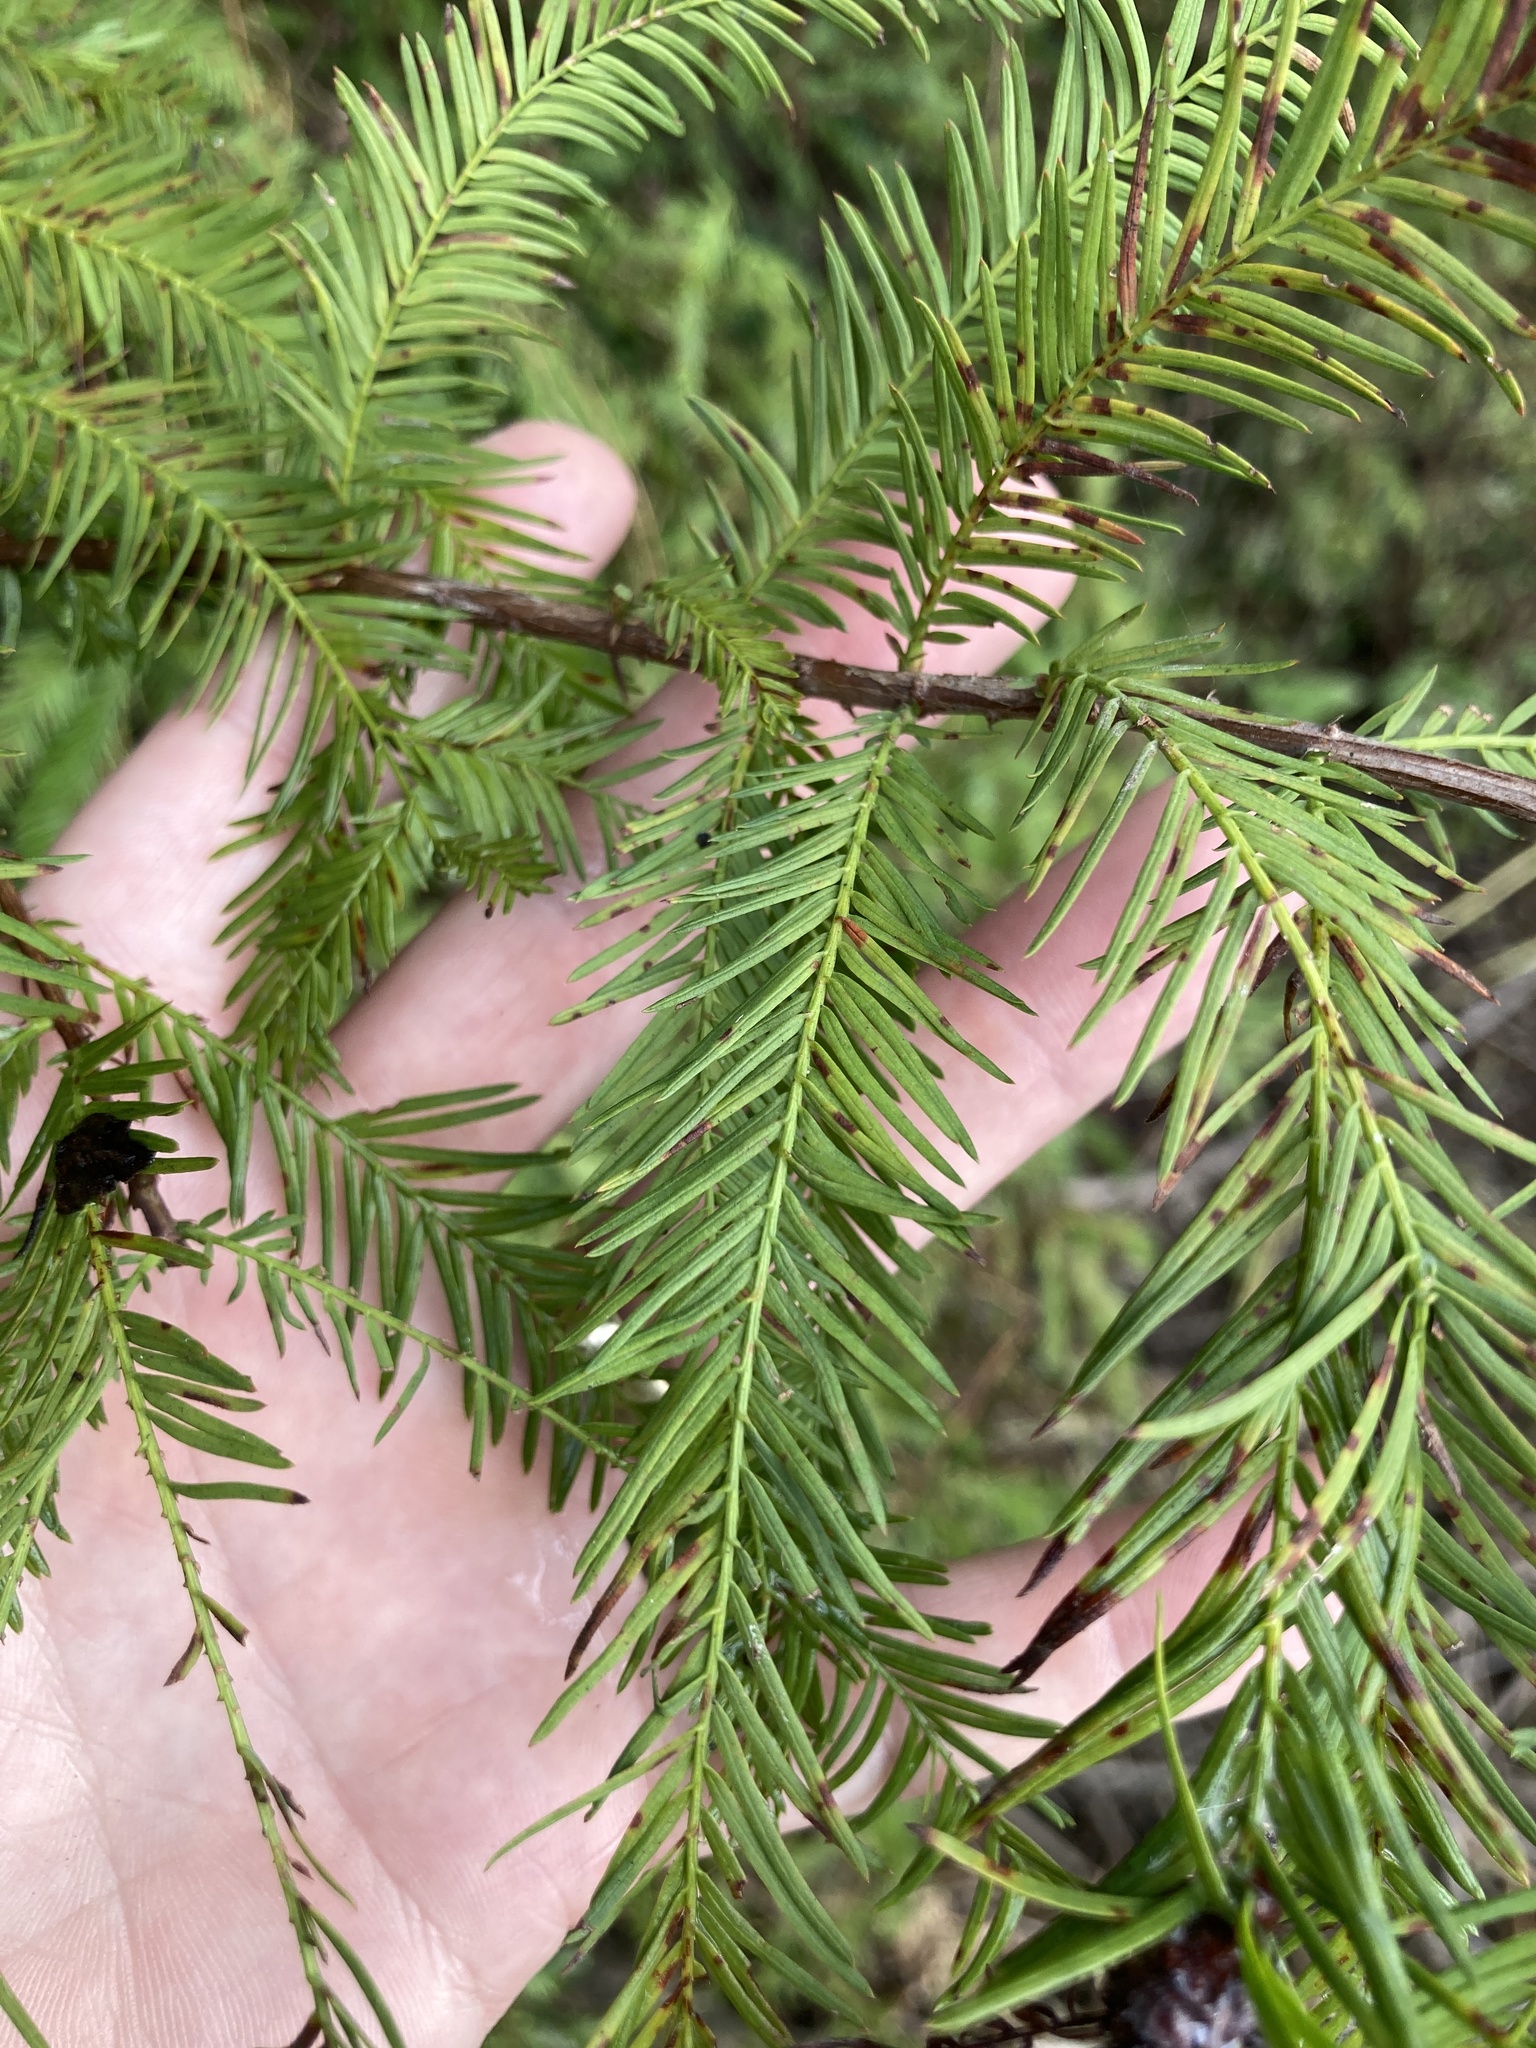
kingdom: Plantae
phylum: Tracheophyta
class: Pinopsida
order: Pinales
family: Cupressaceae
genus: Taxodium
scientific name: Taxodium distichum
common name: Bald cypress
